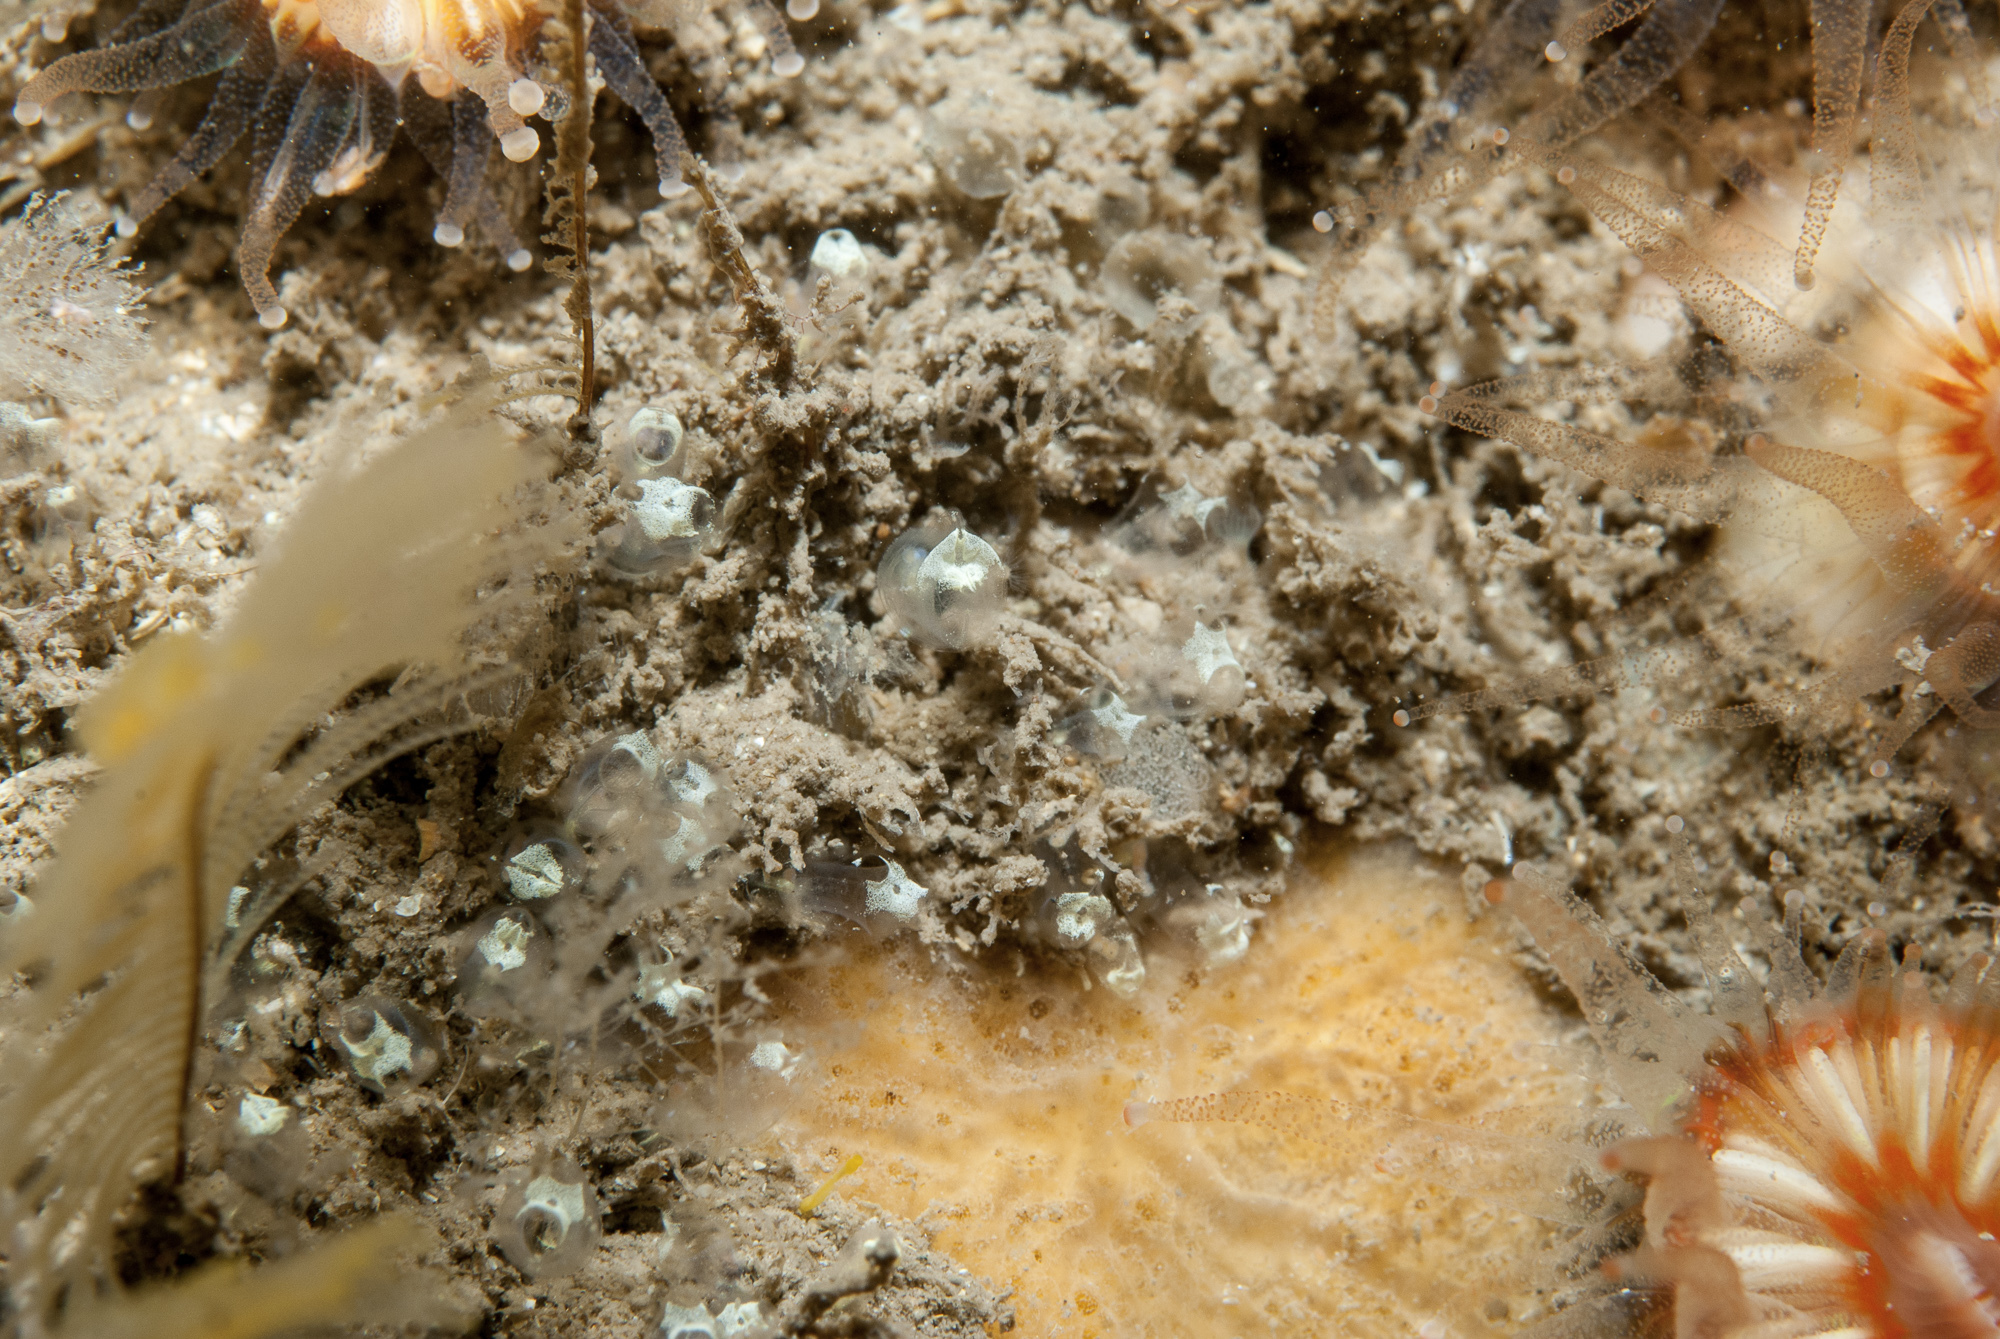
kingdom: Animalia
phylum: Chordata
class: Ascidiacea
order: Aplousobranchia
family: Clavelinidae
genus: Pycnoclavella
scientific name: Pycnoclavella stolonialis
